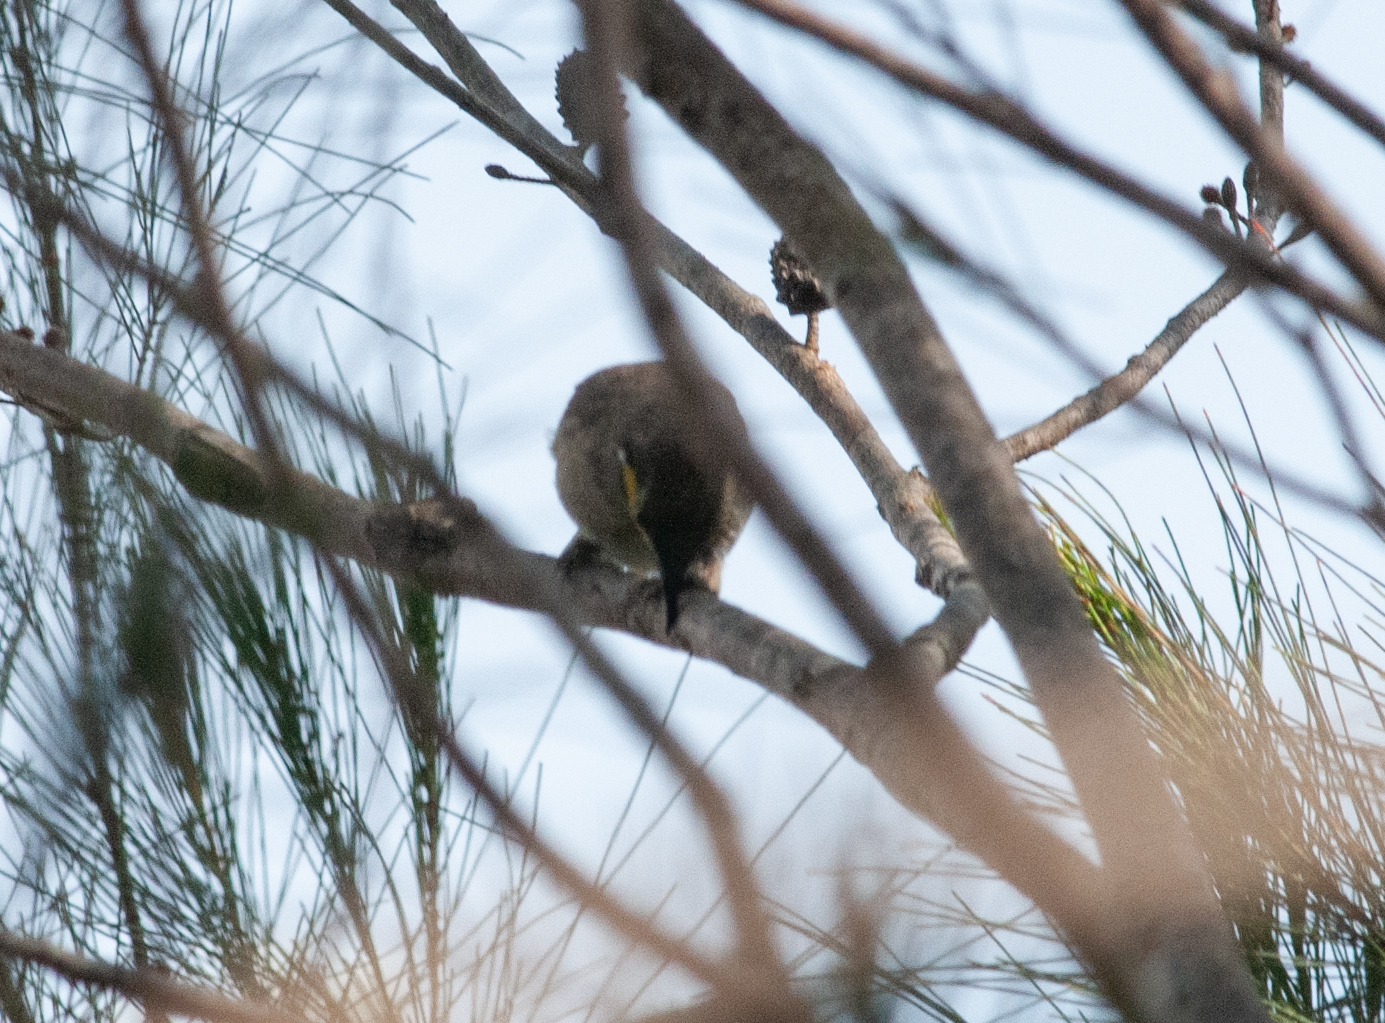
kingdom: Animalia
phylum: Chordata
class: Aves
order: Passeriformes
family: Meliphagidae
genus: Caligavis
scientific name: Caligavis chrysops
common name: Yellow-faced honeyeater
